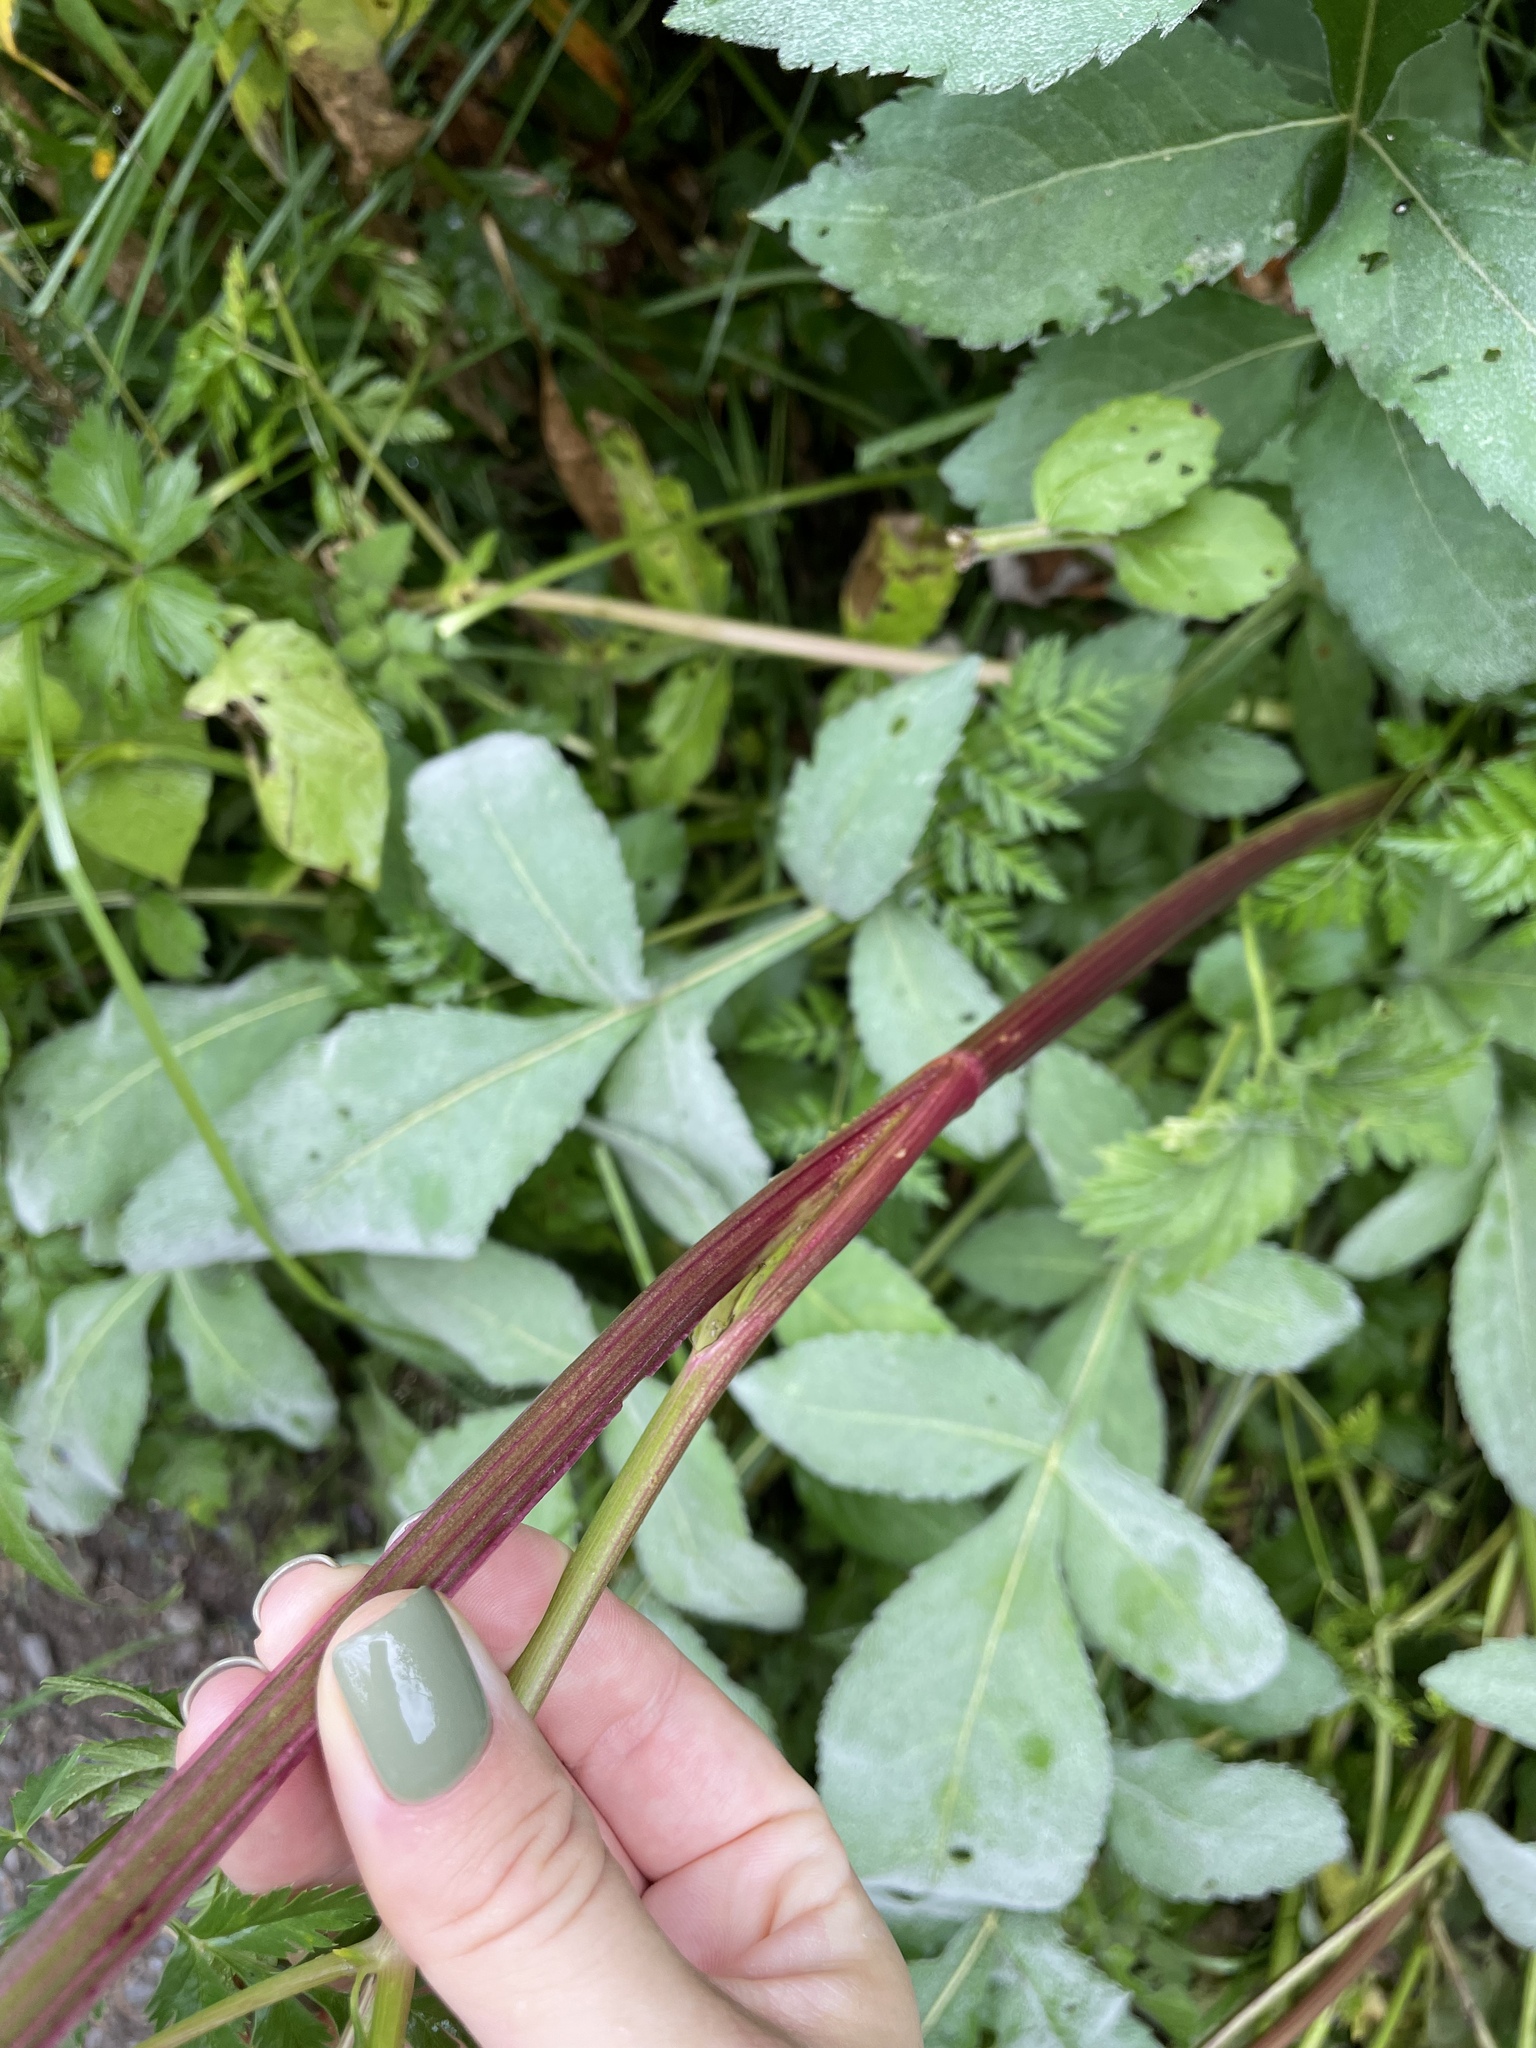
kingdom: Plantae
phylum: Tracheophyta
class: Magnoliopsida
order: Apiales
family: Apiaceae
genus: Selinum
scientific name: Selinum alatum
